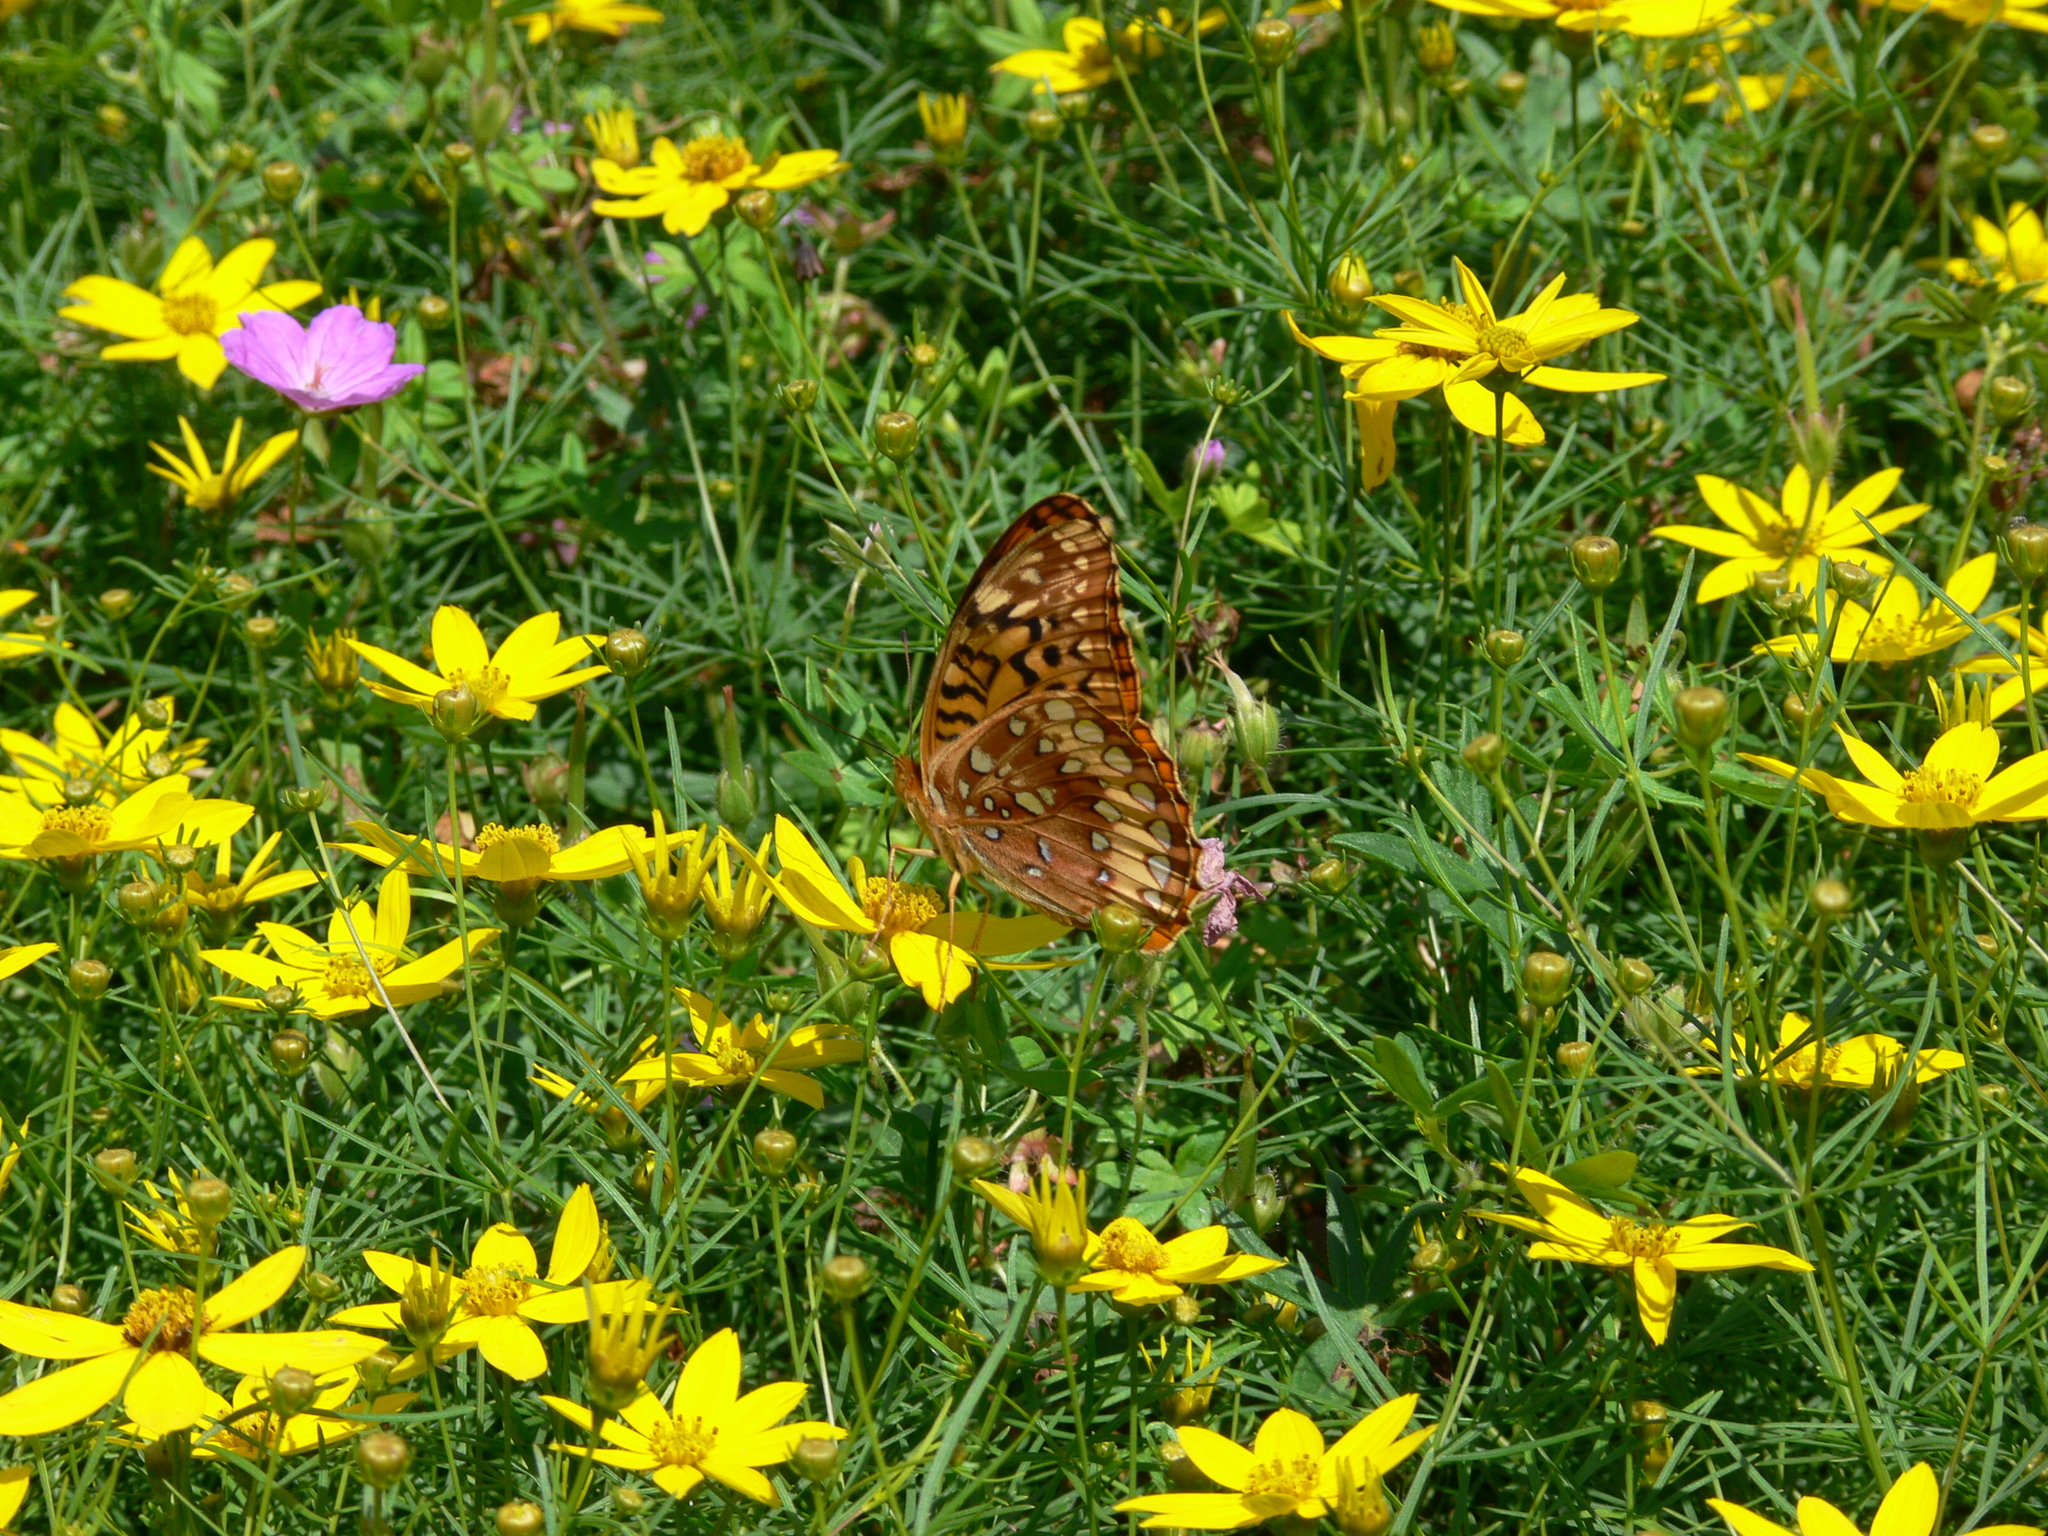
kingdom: Animalia
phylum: Arthropoda
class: Insecta
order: Lepidoptera
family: Nymphalidae
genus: Speyeria
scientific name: Speyeria cybele
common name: Great spangled fritillary
